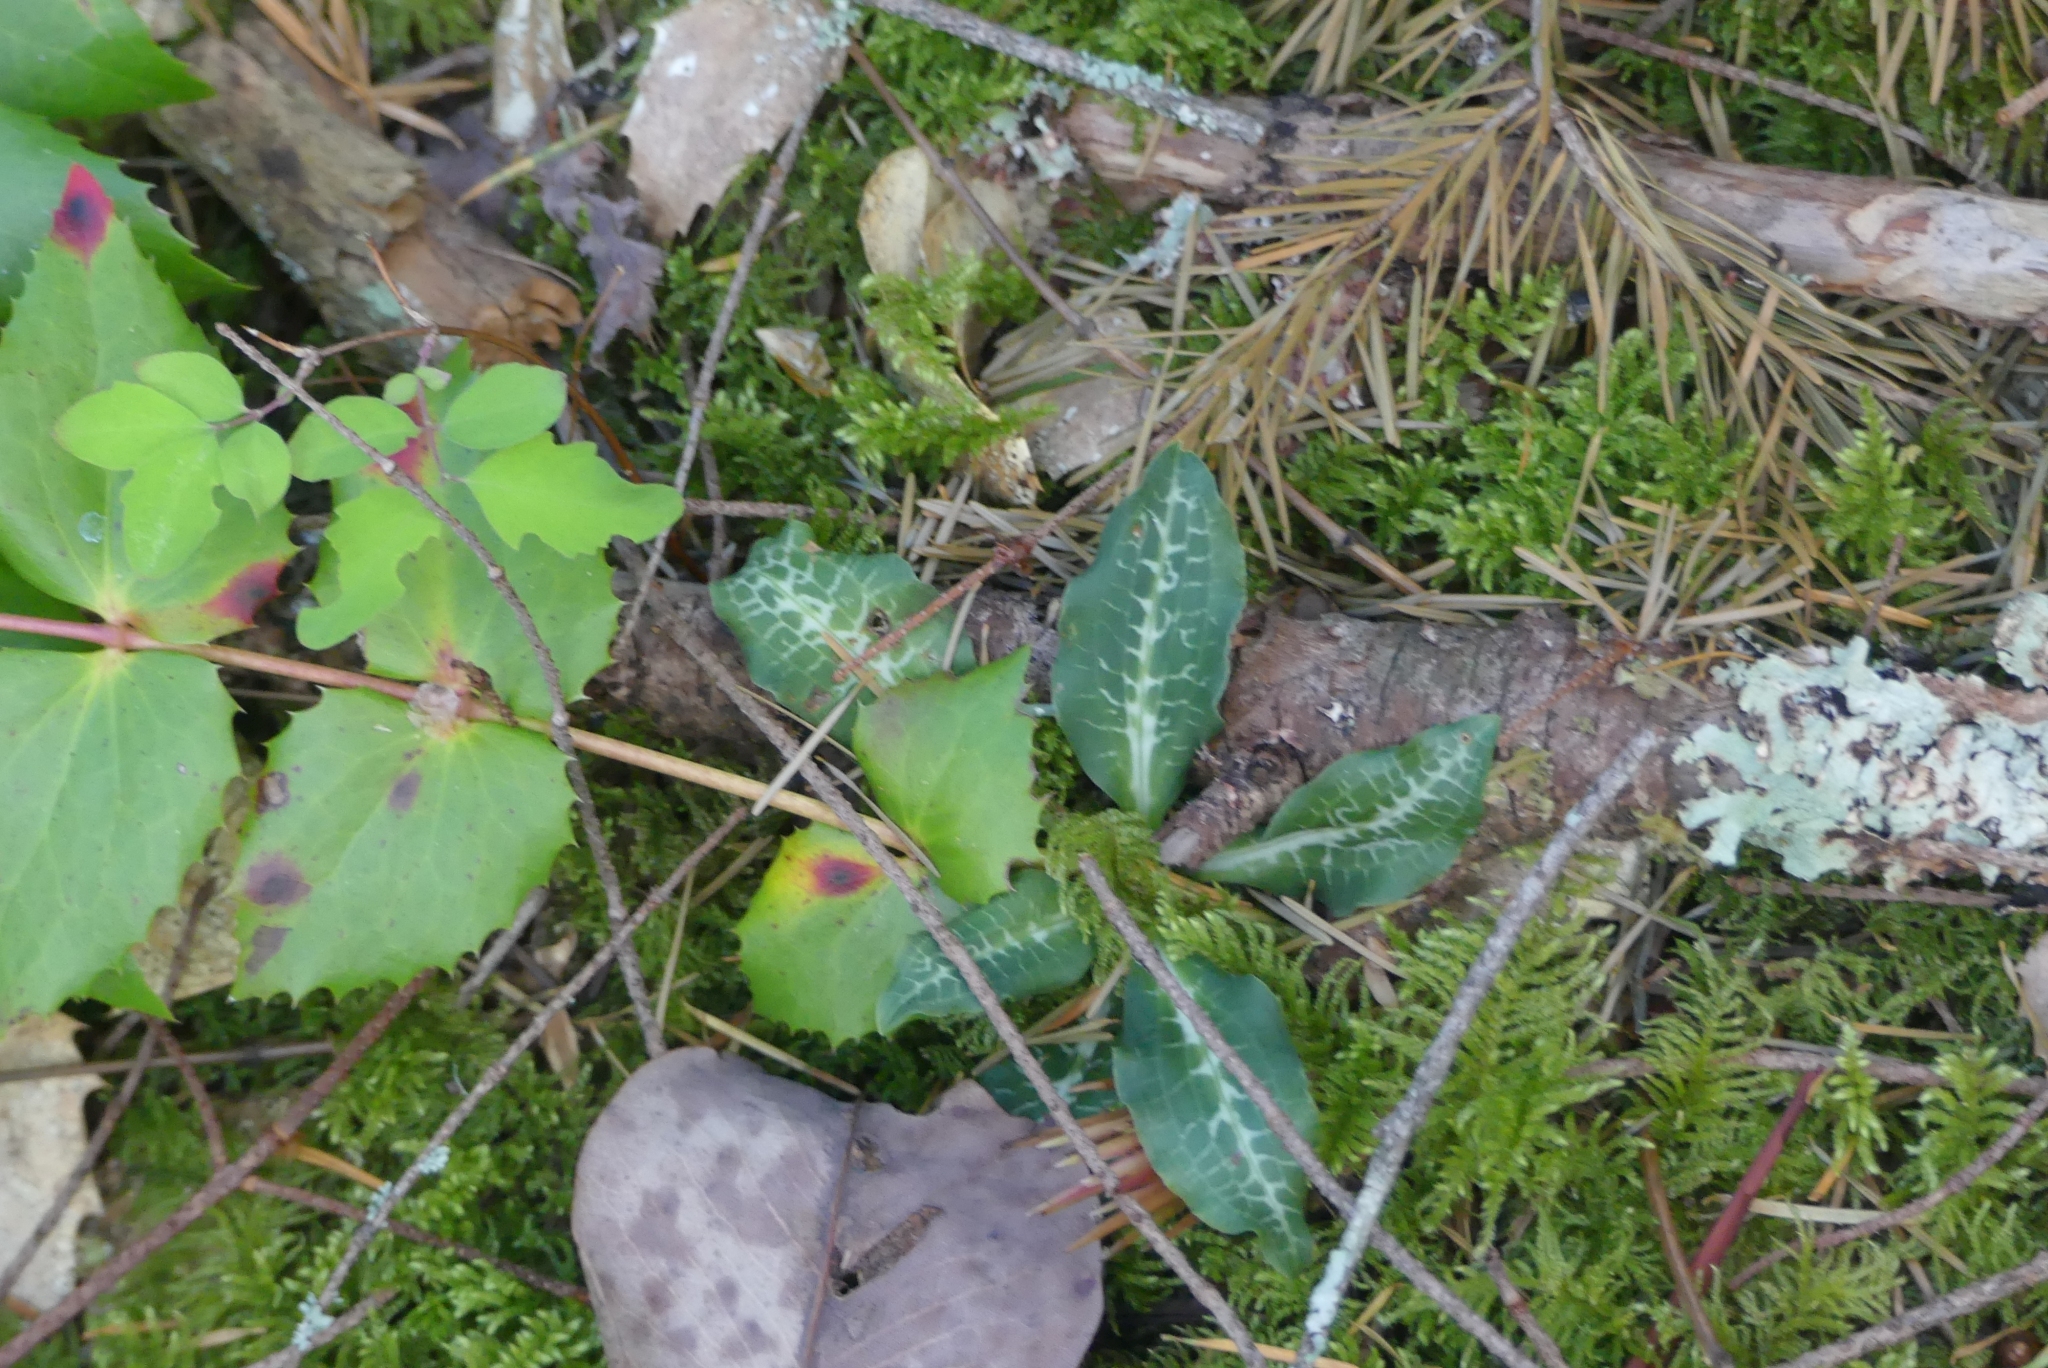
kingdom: Plantae
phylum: Tracheophyta
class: Liliopsida
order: Asparagales
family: Orchidaceae
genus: Goodyera
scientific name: Goodyera oblongifolia
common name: Giant rattlesnake-plantain
